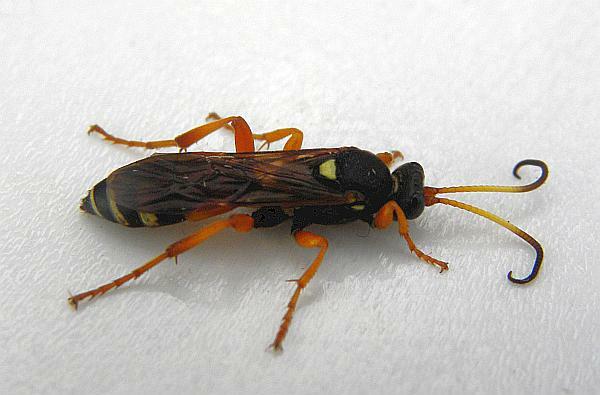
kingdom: Animalia
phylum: Arthropoda
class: Insecta
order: Hymenoptera
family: Ichneumonidae
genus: Ichneumon
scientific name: Ichneumon ambulatorius
